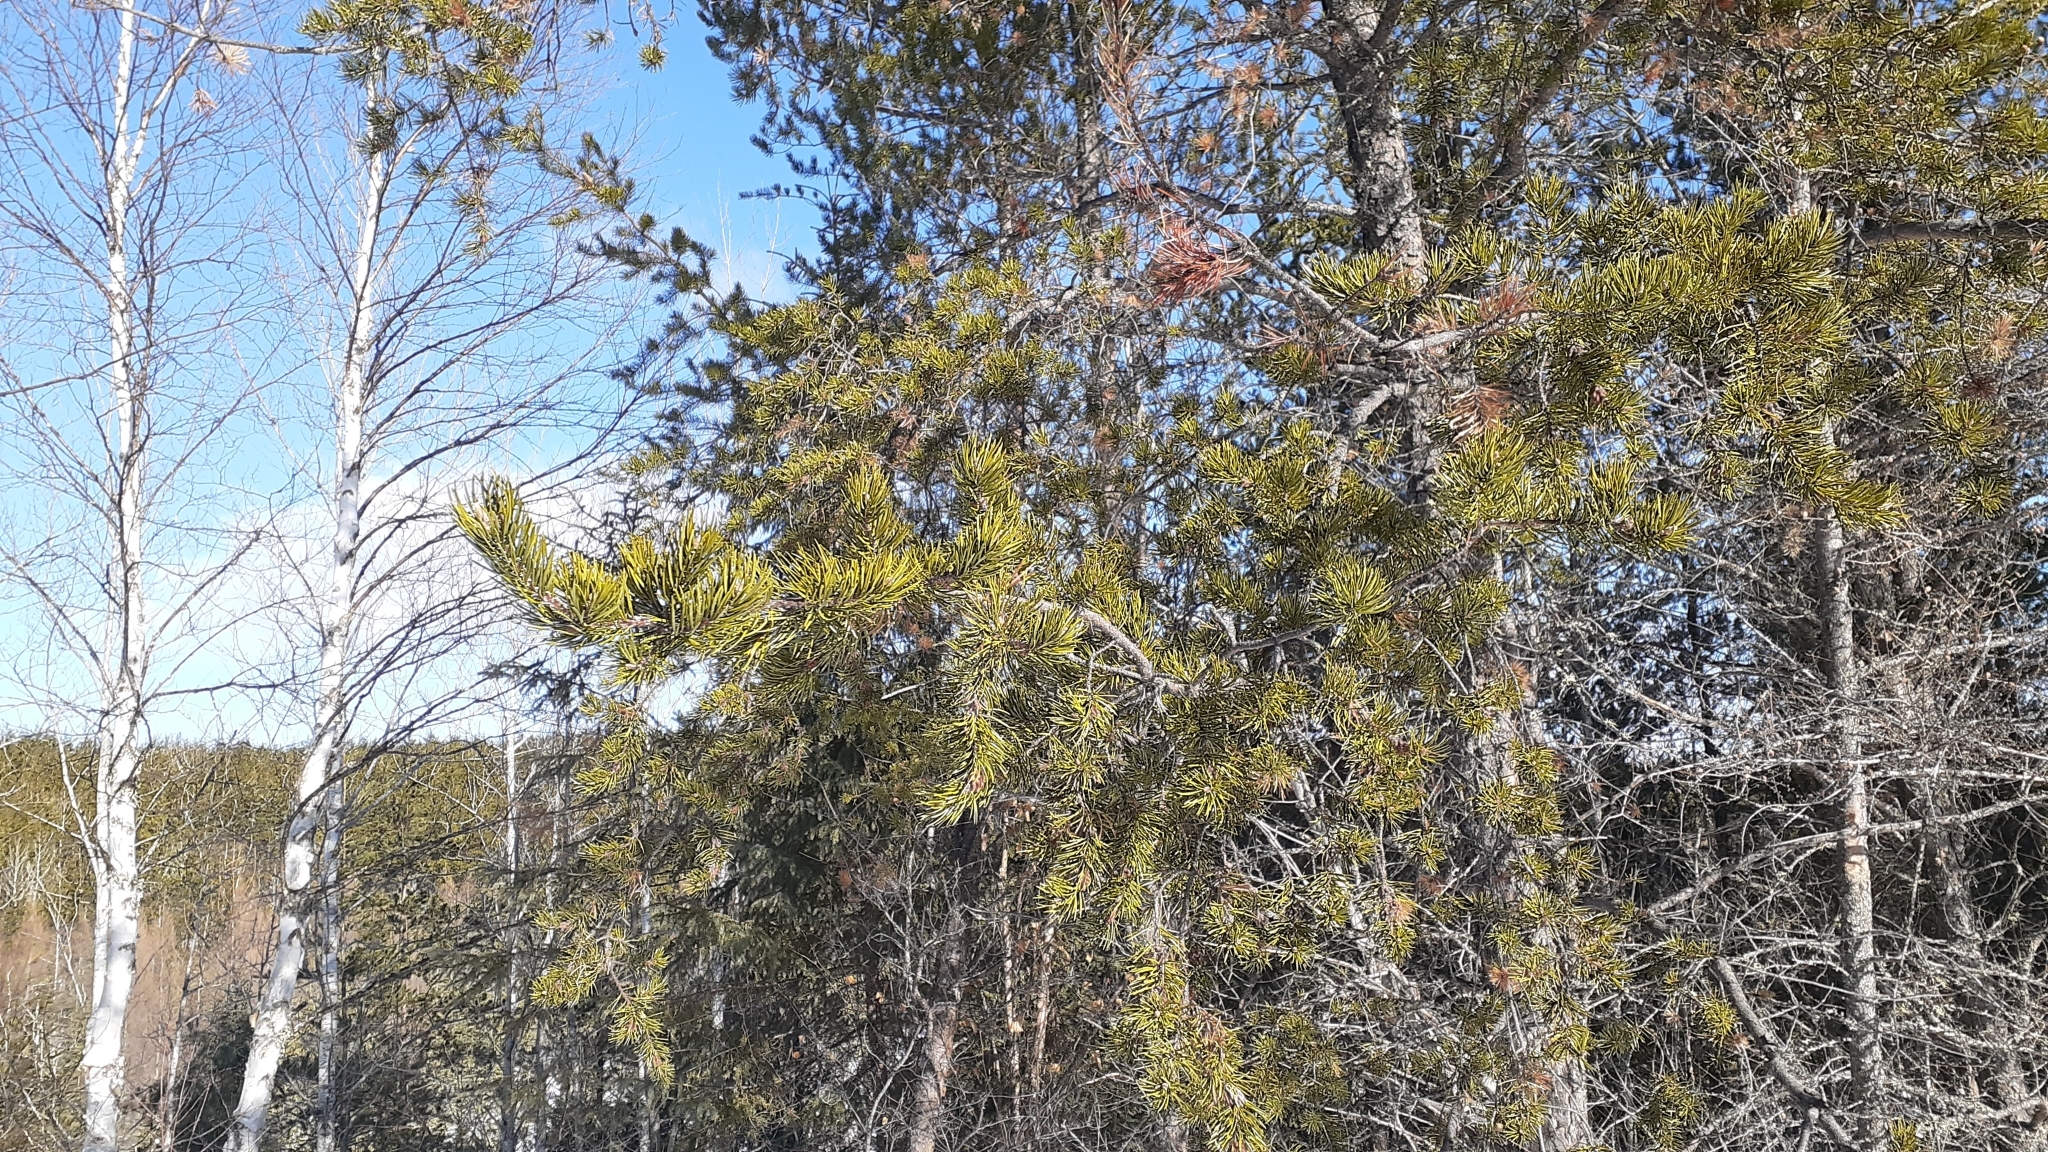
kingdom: Plantae
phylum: Tracheophyta
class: Pinopsida
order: Pinales
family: Pinaceae
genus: Pinus
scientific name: Pinus banksiana
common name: Jack pine
